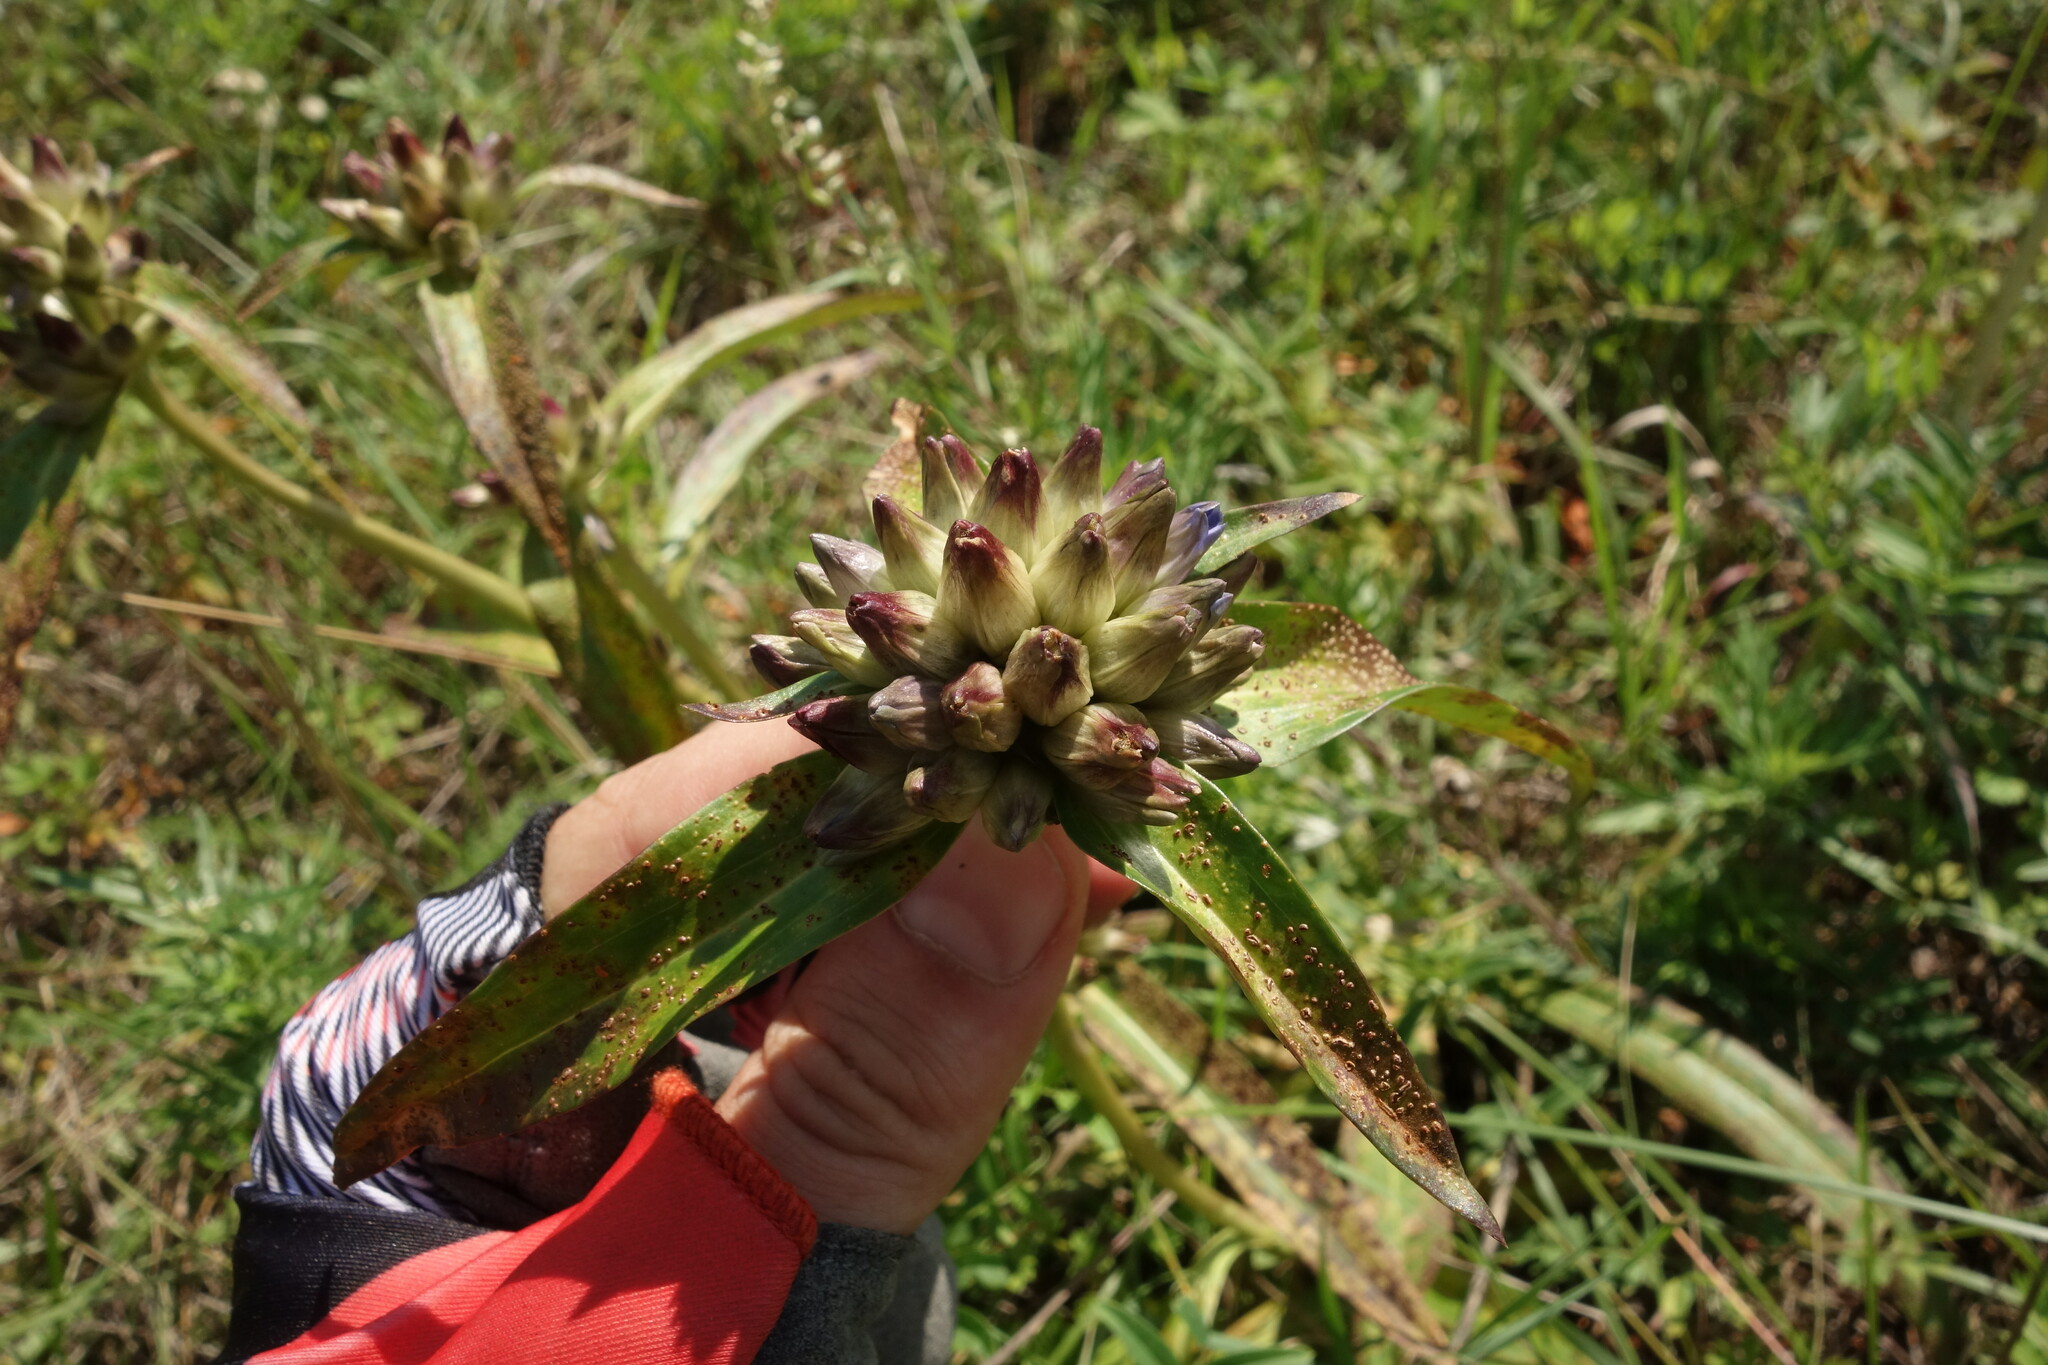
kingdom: Plantae
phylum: Tracheophyta
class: Magnoliopsida
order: Gentianales
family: Gentianaceae
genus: Gentiana
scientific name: Gentiana macrophylla
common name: Large-leaf gentian
